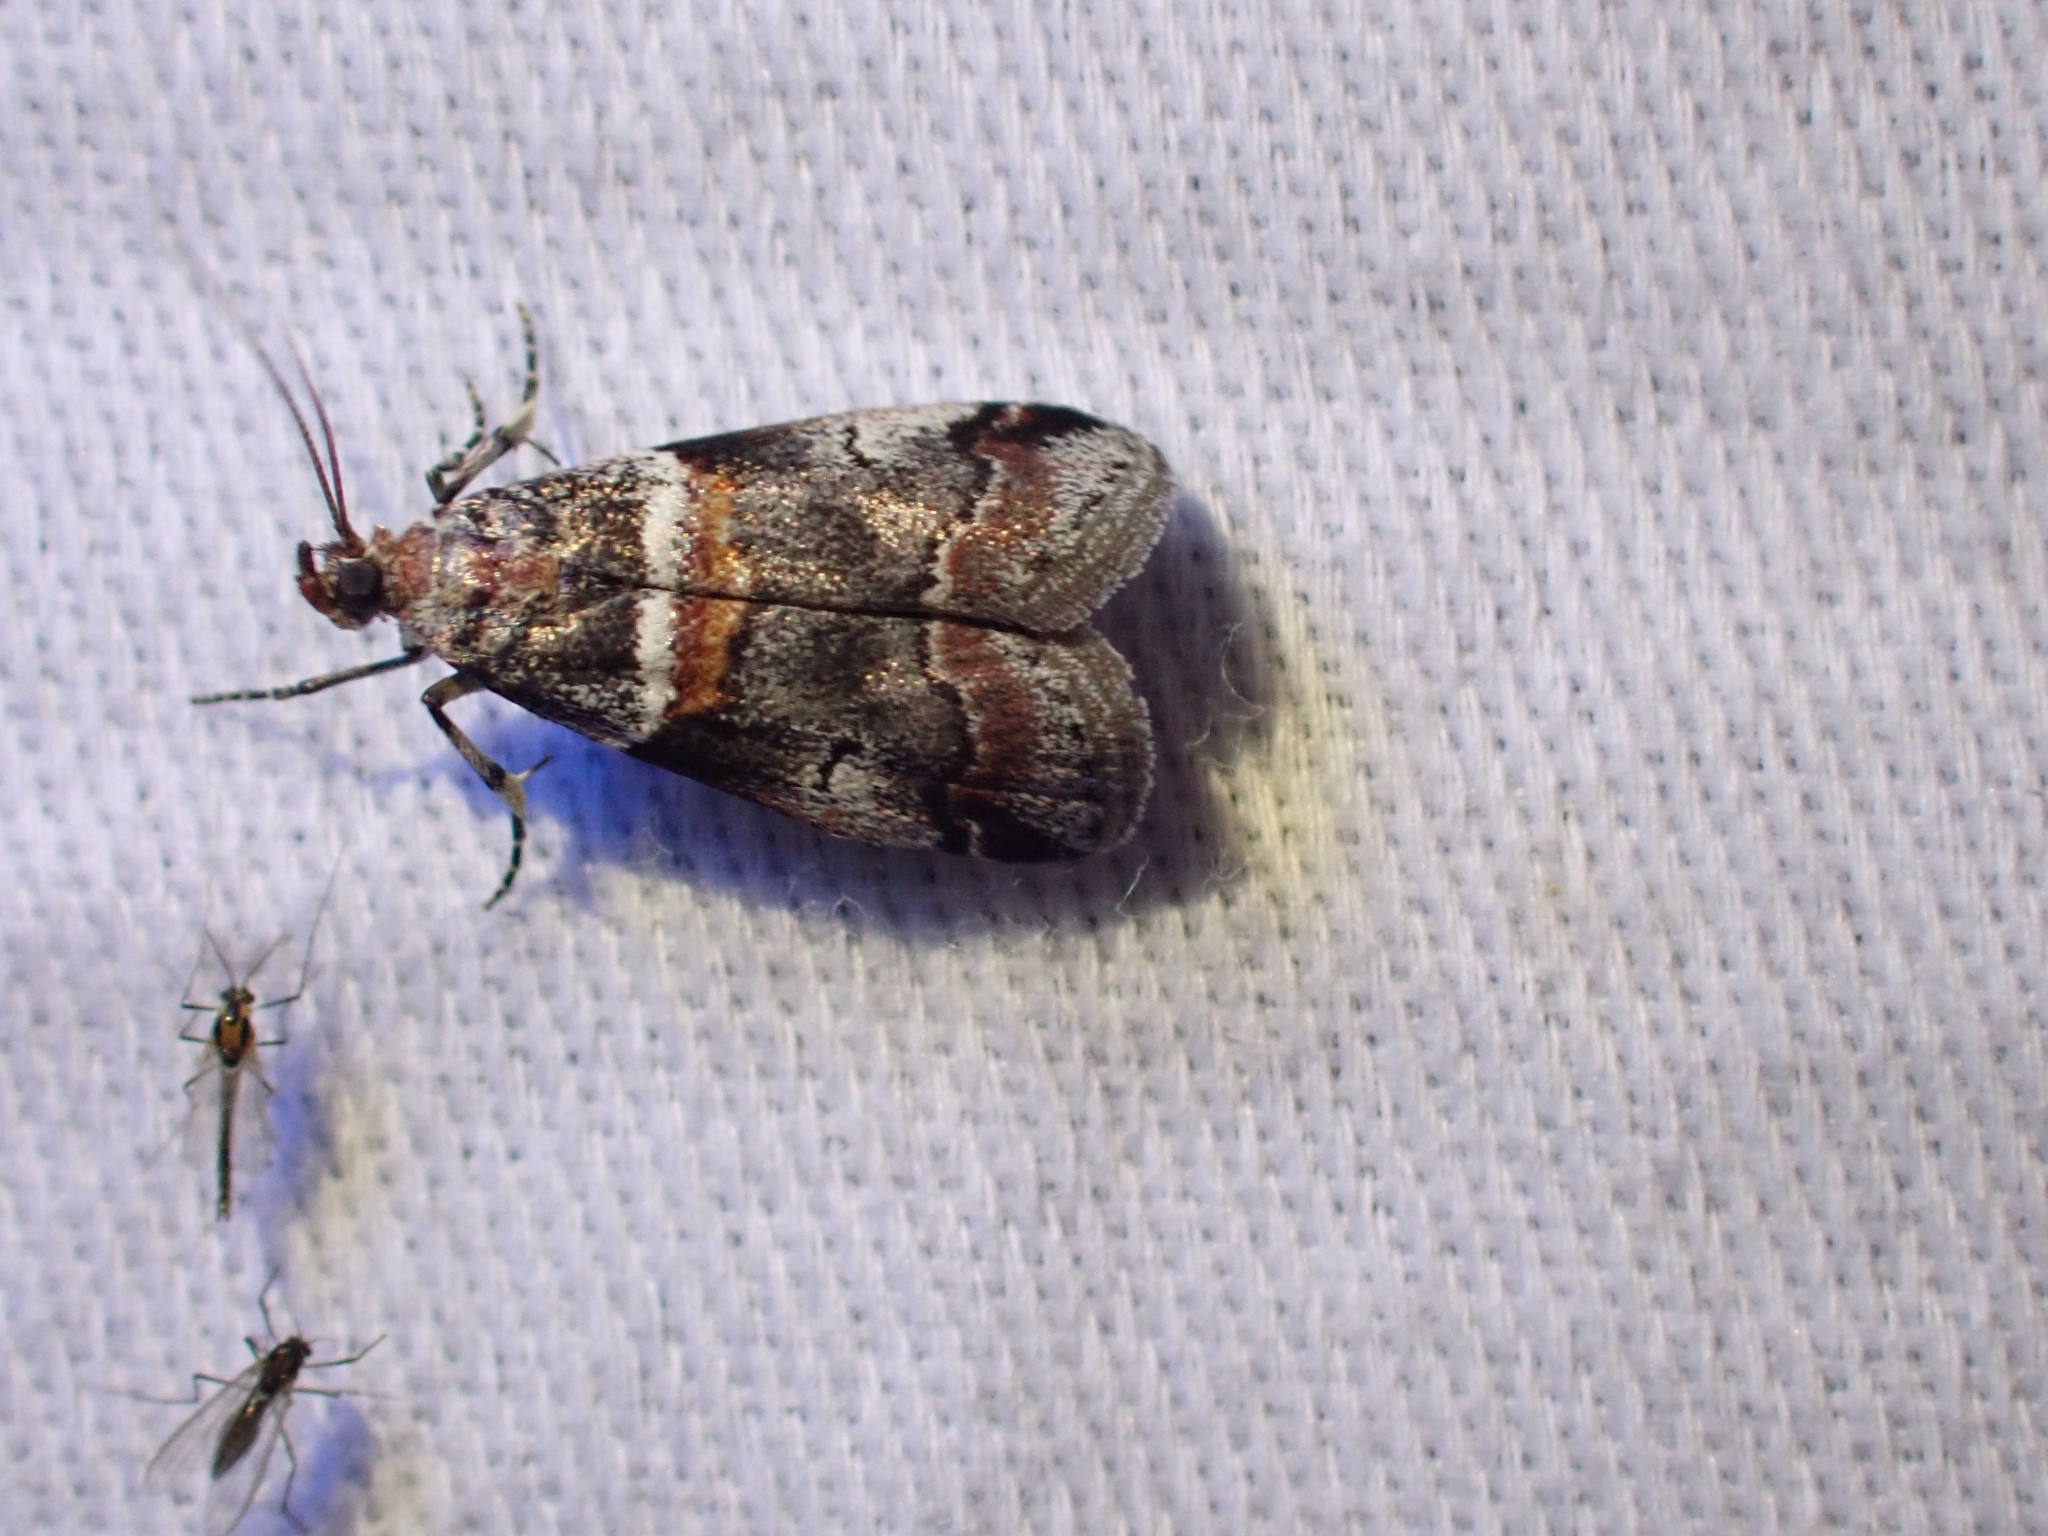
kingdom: Animalia
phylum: Arthropoda
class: Insecta
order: Lepidoptera
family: Pyralidae
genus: Acrobasis
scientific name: Acrobasis tricolorella
